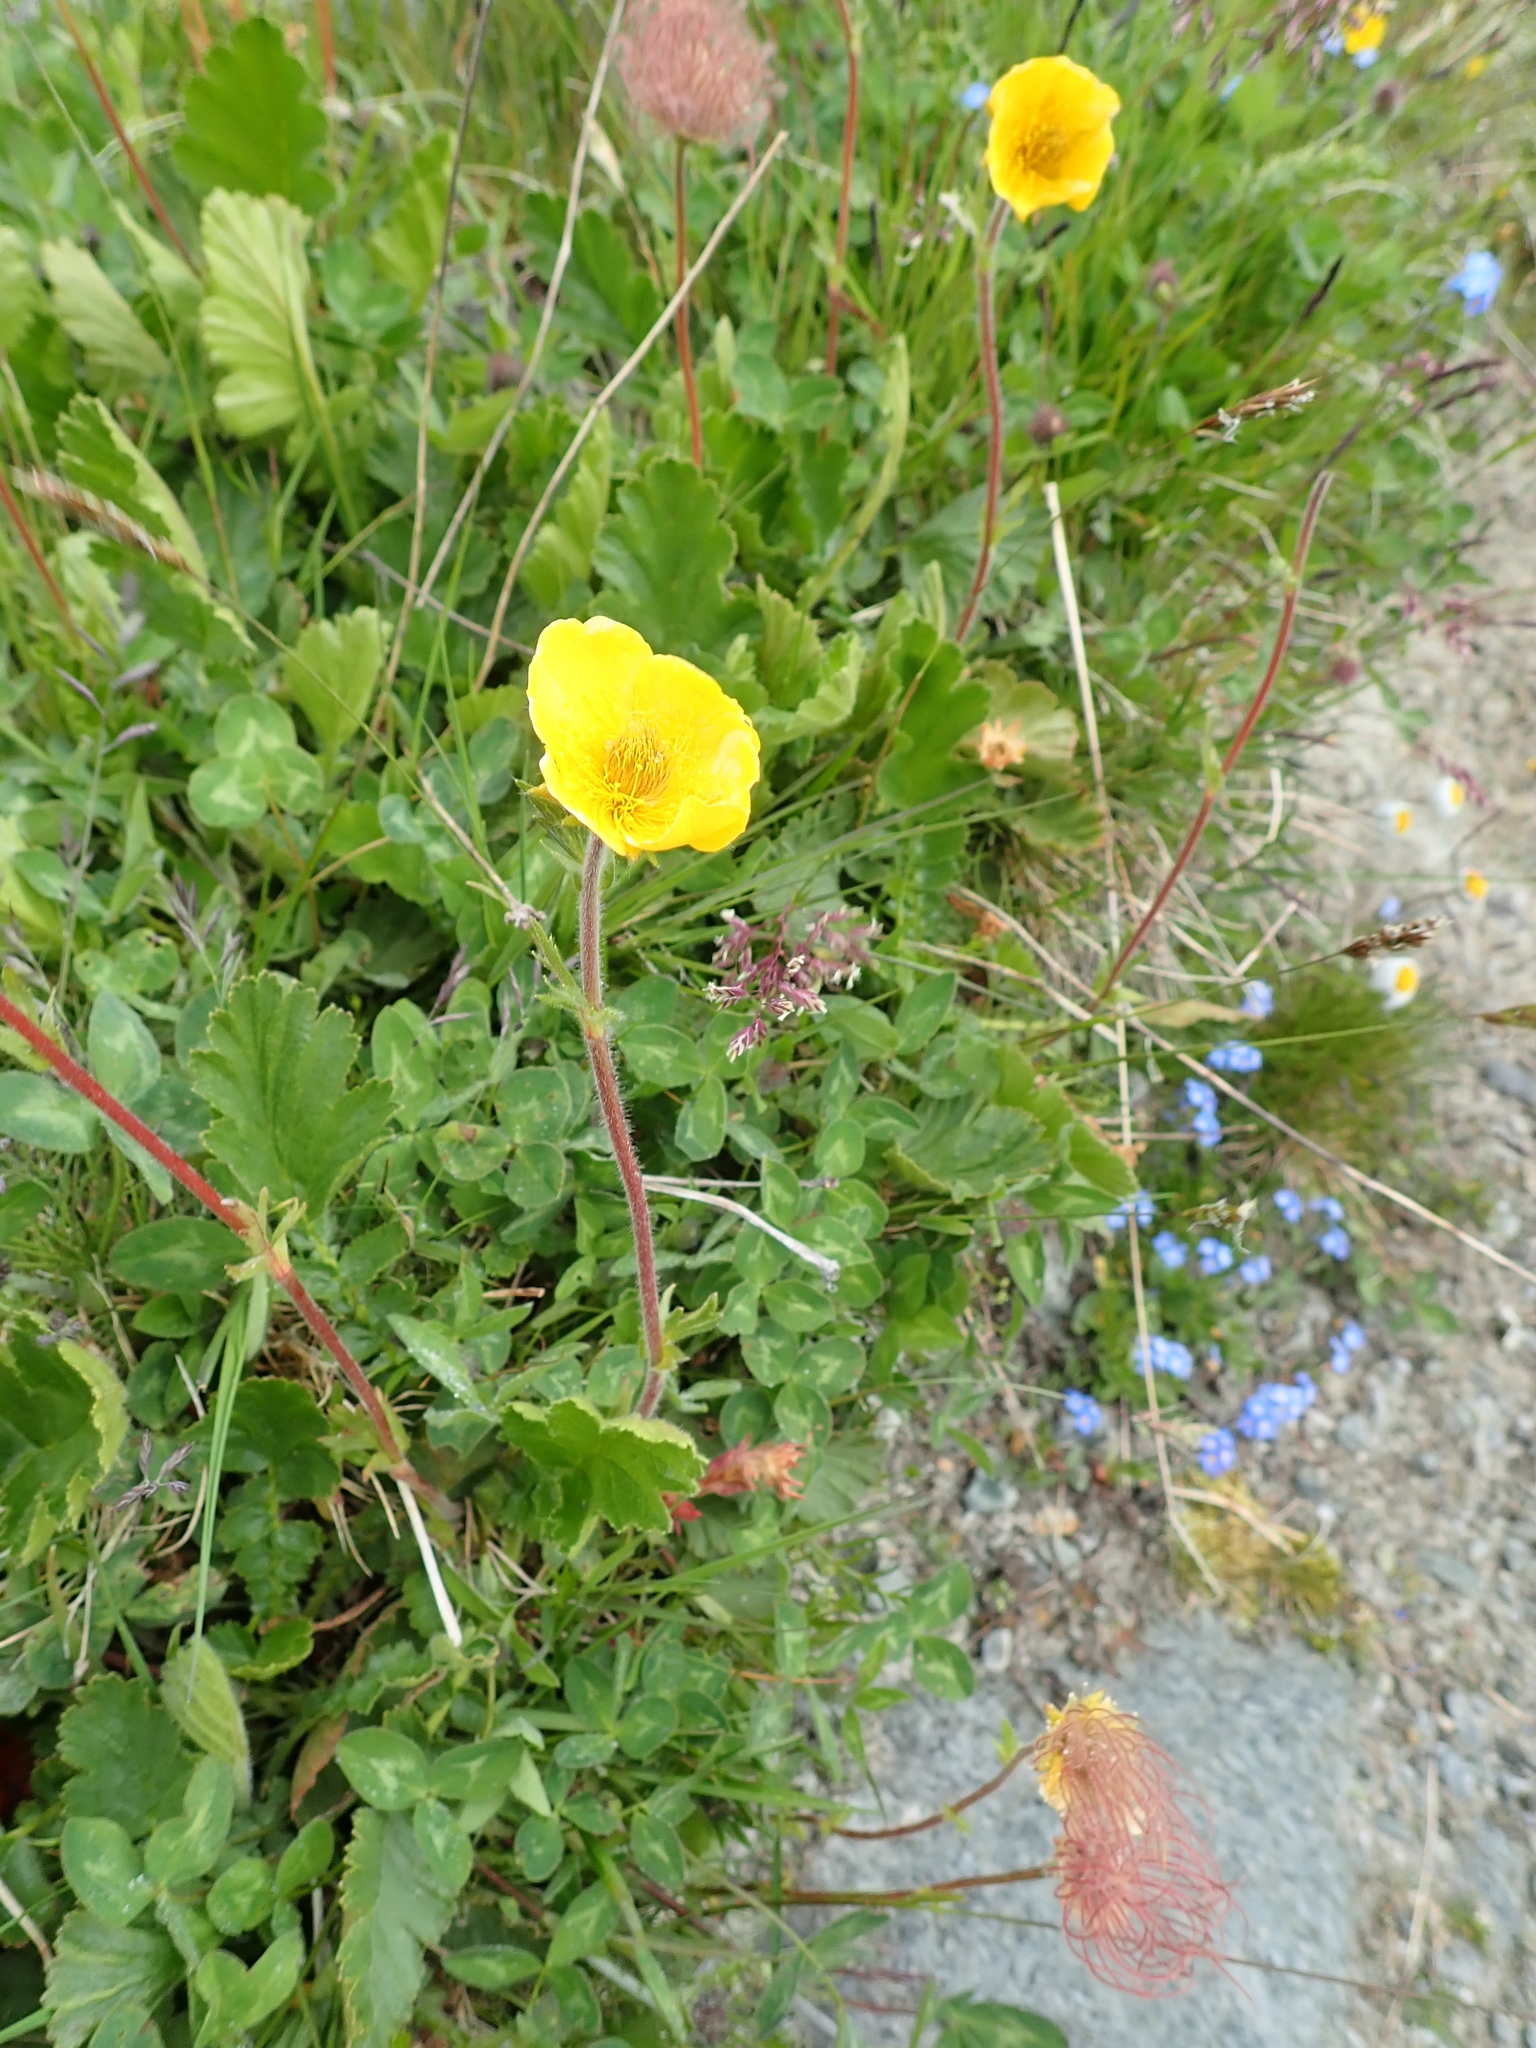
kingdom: Plantae
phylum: Tracheophyta
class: Magnoliopsida
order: Rosales
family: Rosaceae
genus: Geum
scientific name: Geum montanum
